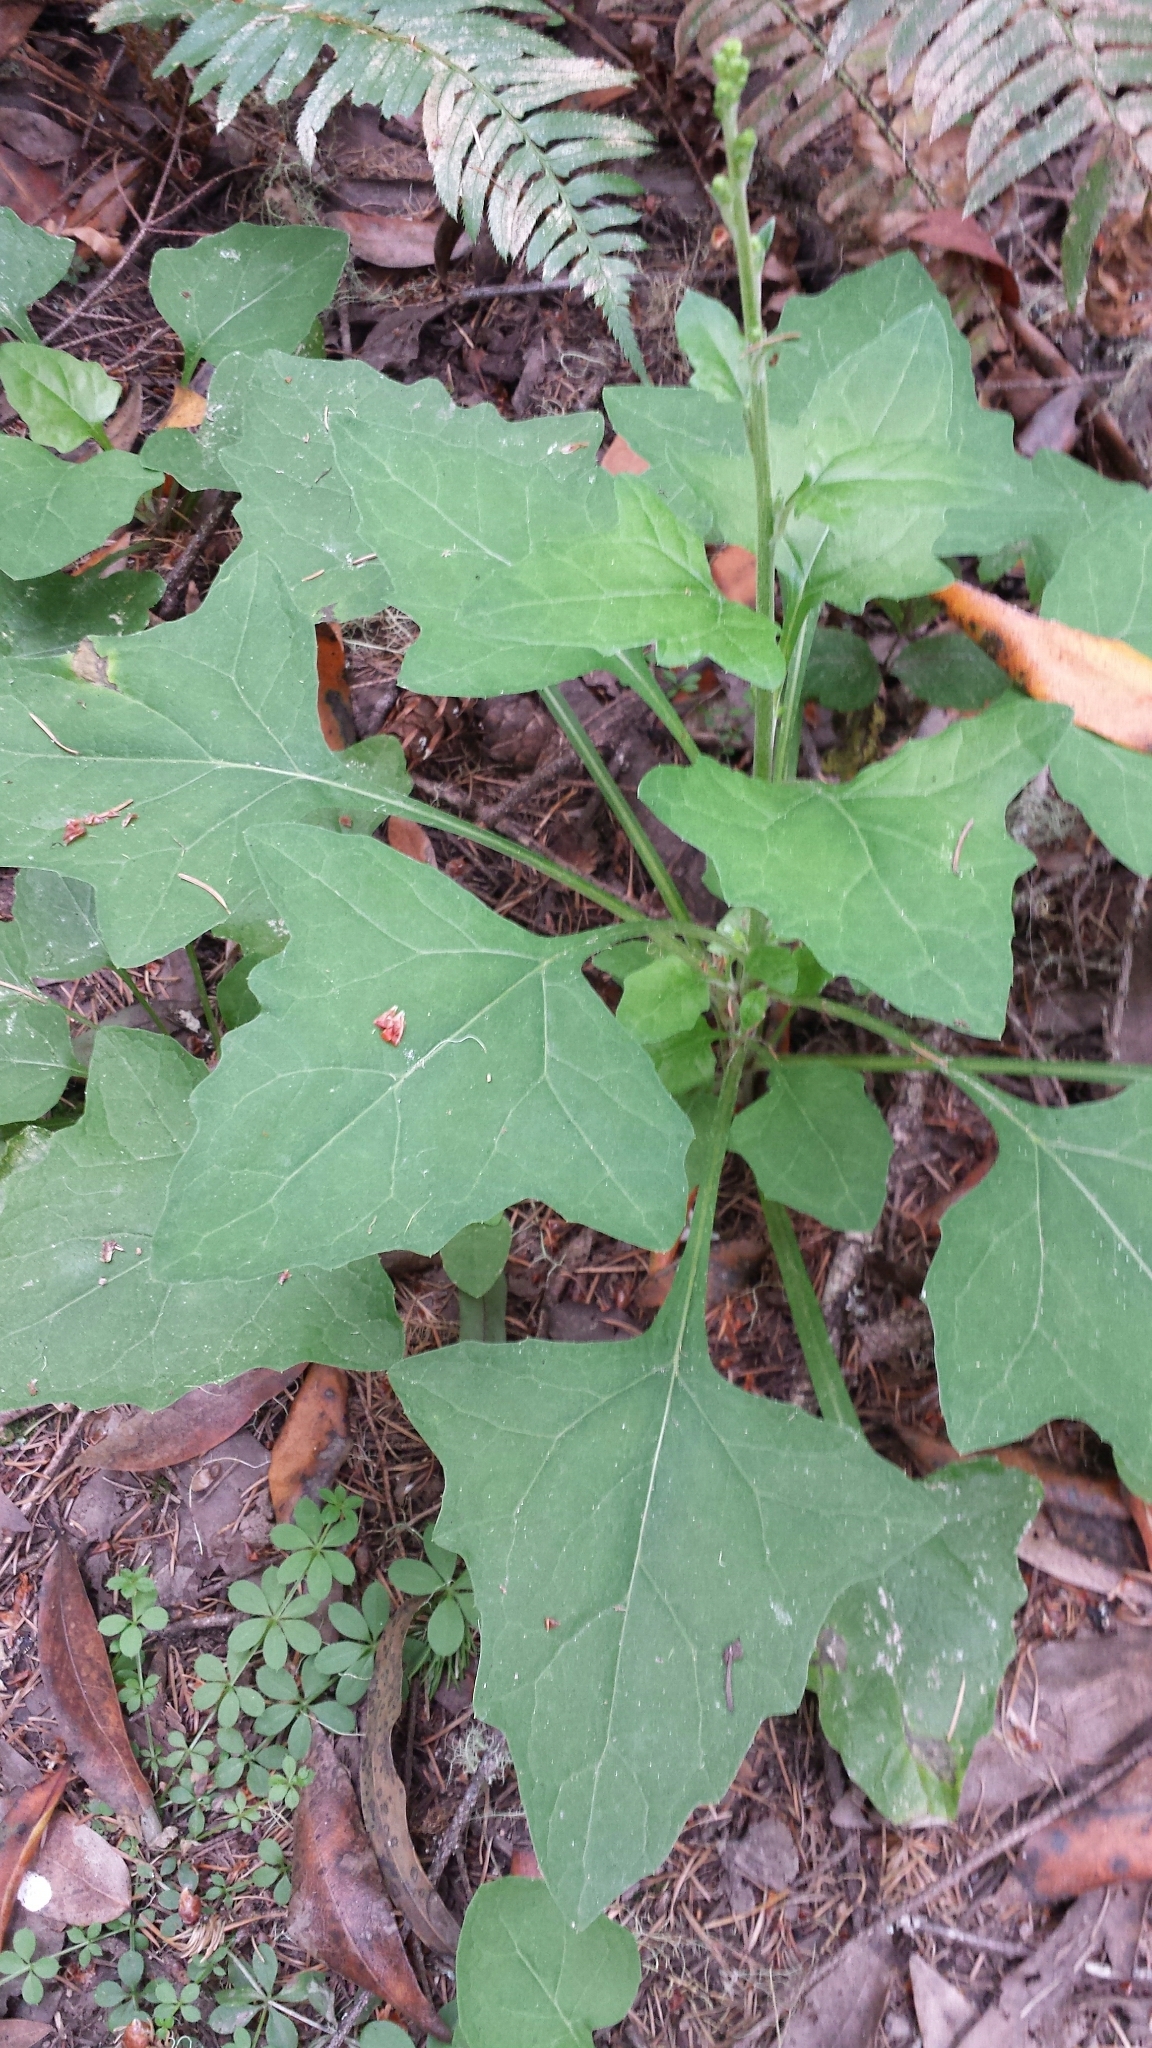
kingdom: Plantae
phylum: Tracheophyta
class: Magnoliopsida
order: Asterales
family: Asteraceae
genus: Adenocaulon
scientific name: Adenocaulon bicolor
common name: Trailplant
